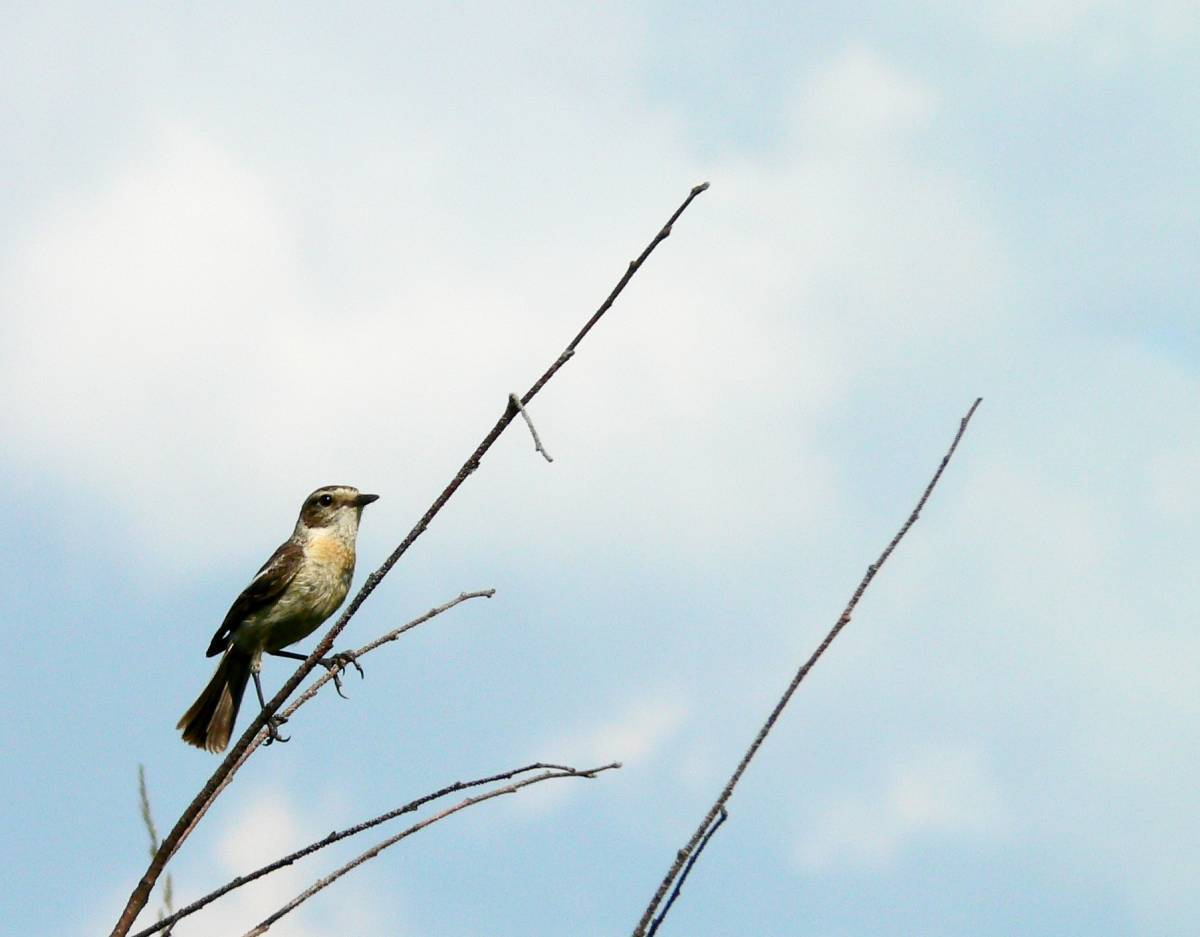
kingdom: Animalia
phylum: Chordata
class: Aves
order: Passeriformes
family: Muscicapidae
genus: Saxicola
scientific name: Saxicola maurus
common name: Siberian stonechat
